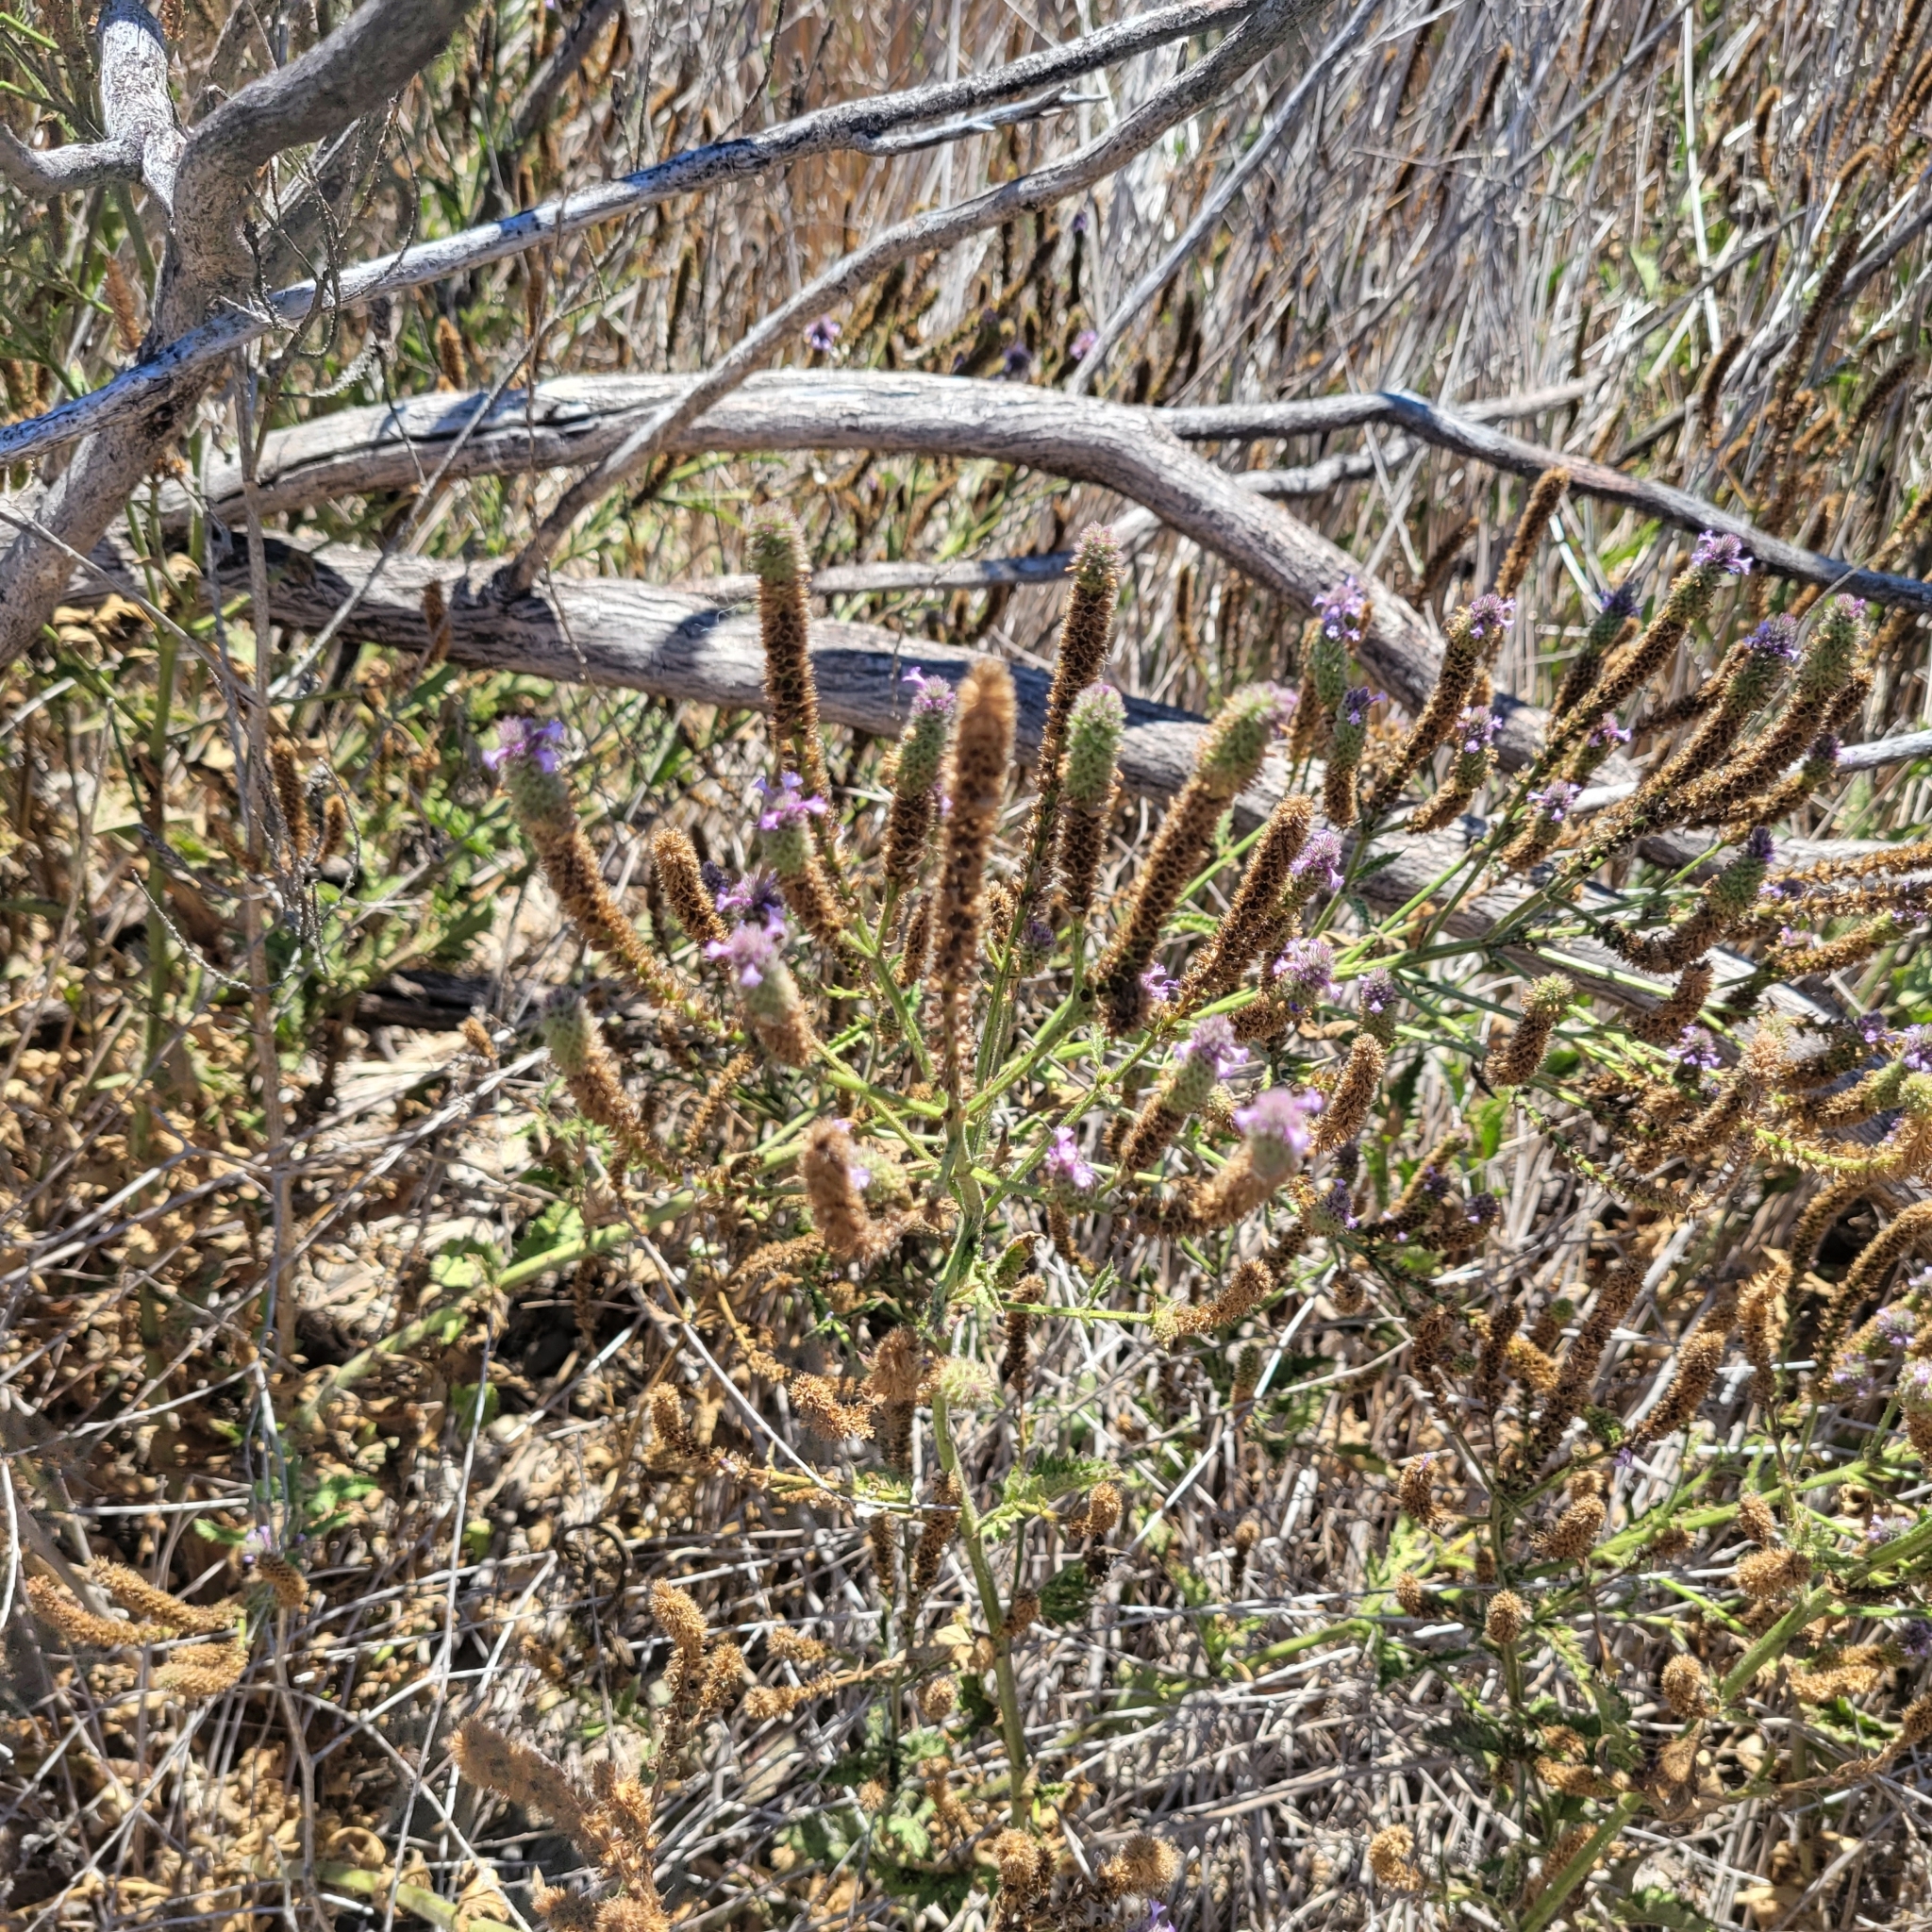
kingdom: Plantae
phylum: Tracheophyta
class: Magnoliopsida
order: Lamiales
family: Verbenaceae
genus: Verbena
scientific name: Verbena lasiostachys
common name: Vervain
